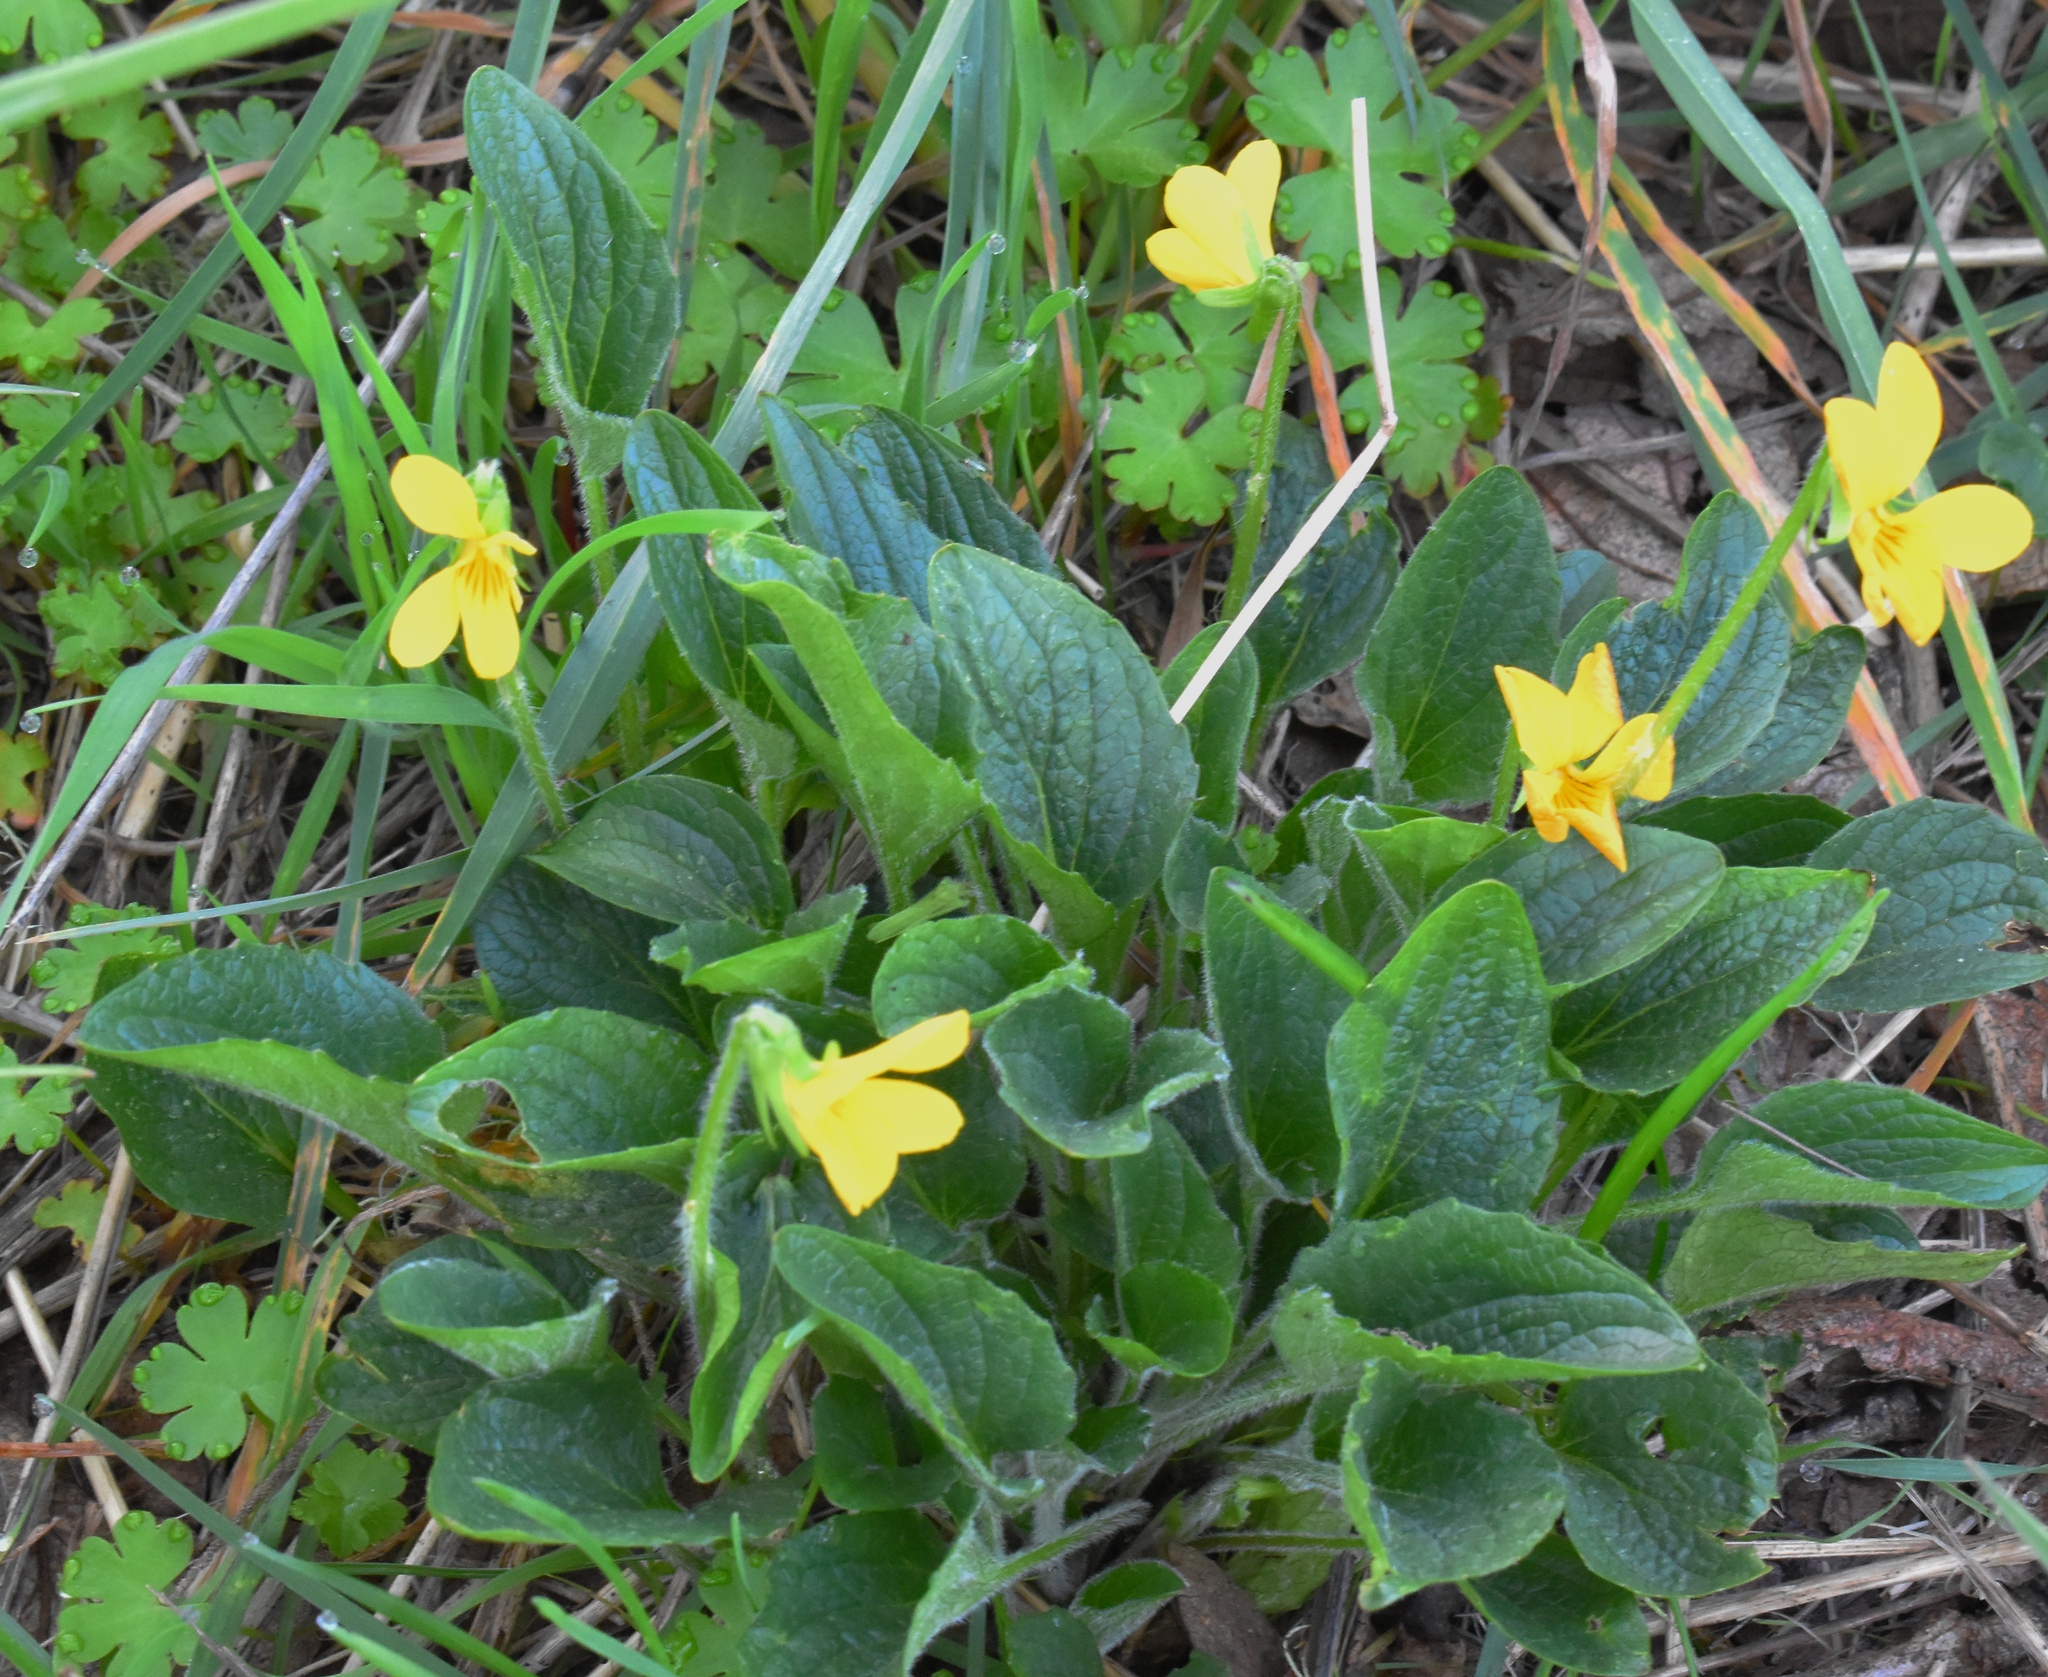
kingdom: Plantae
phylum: Tracheophyta
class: Magnoliopsida
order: Malpighiales
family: Violaceae
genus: Viola
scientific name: Viola praemorsa
